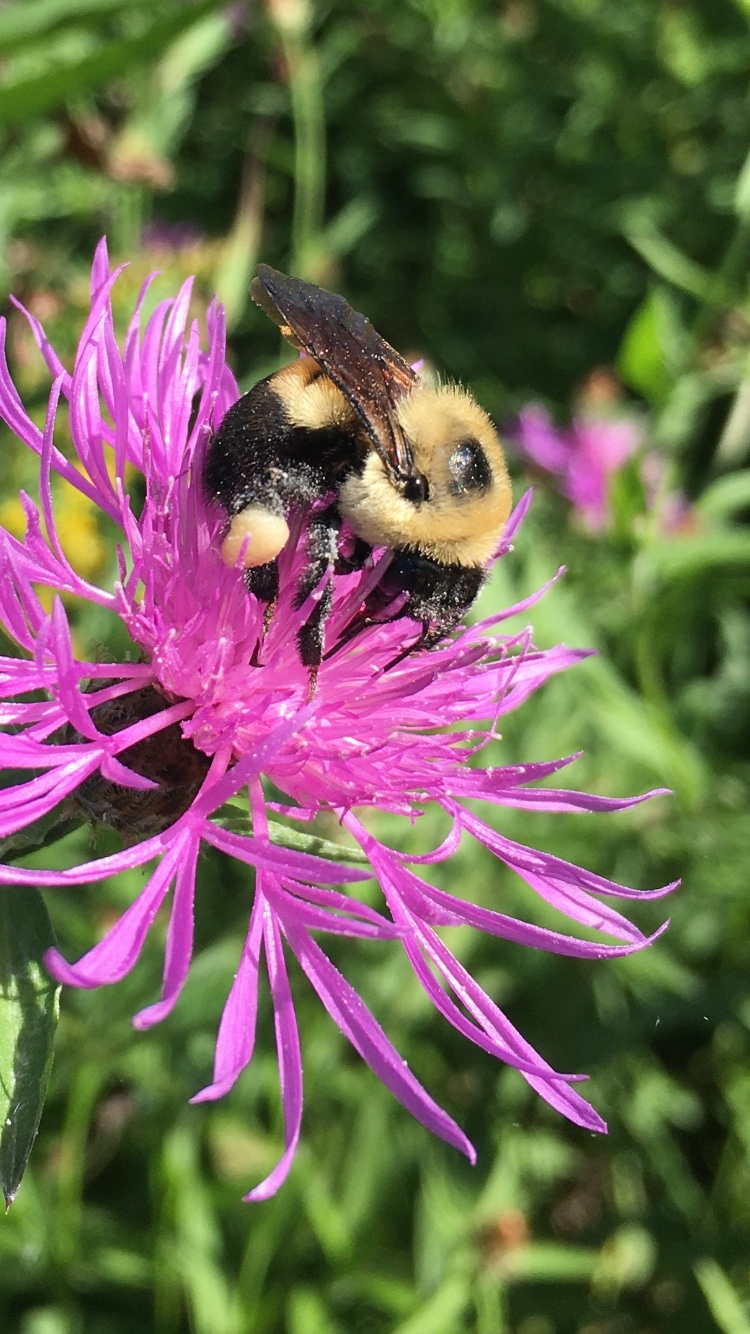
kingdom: Animalia
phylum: Arthropoda
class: Insecta
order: Hymenoptera
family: Apidae
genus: Bombus
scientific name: Bombus griseocollis
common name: Brown-belted bumble bee
